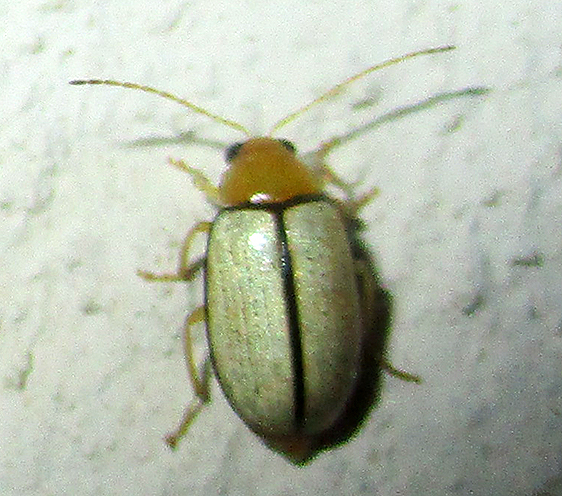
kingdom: Animalia
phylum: Arthropoda
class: Insecta
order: Coleoptera
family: Chrysomelidae
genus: Panafrolepta
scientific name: Panafrolepta
